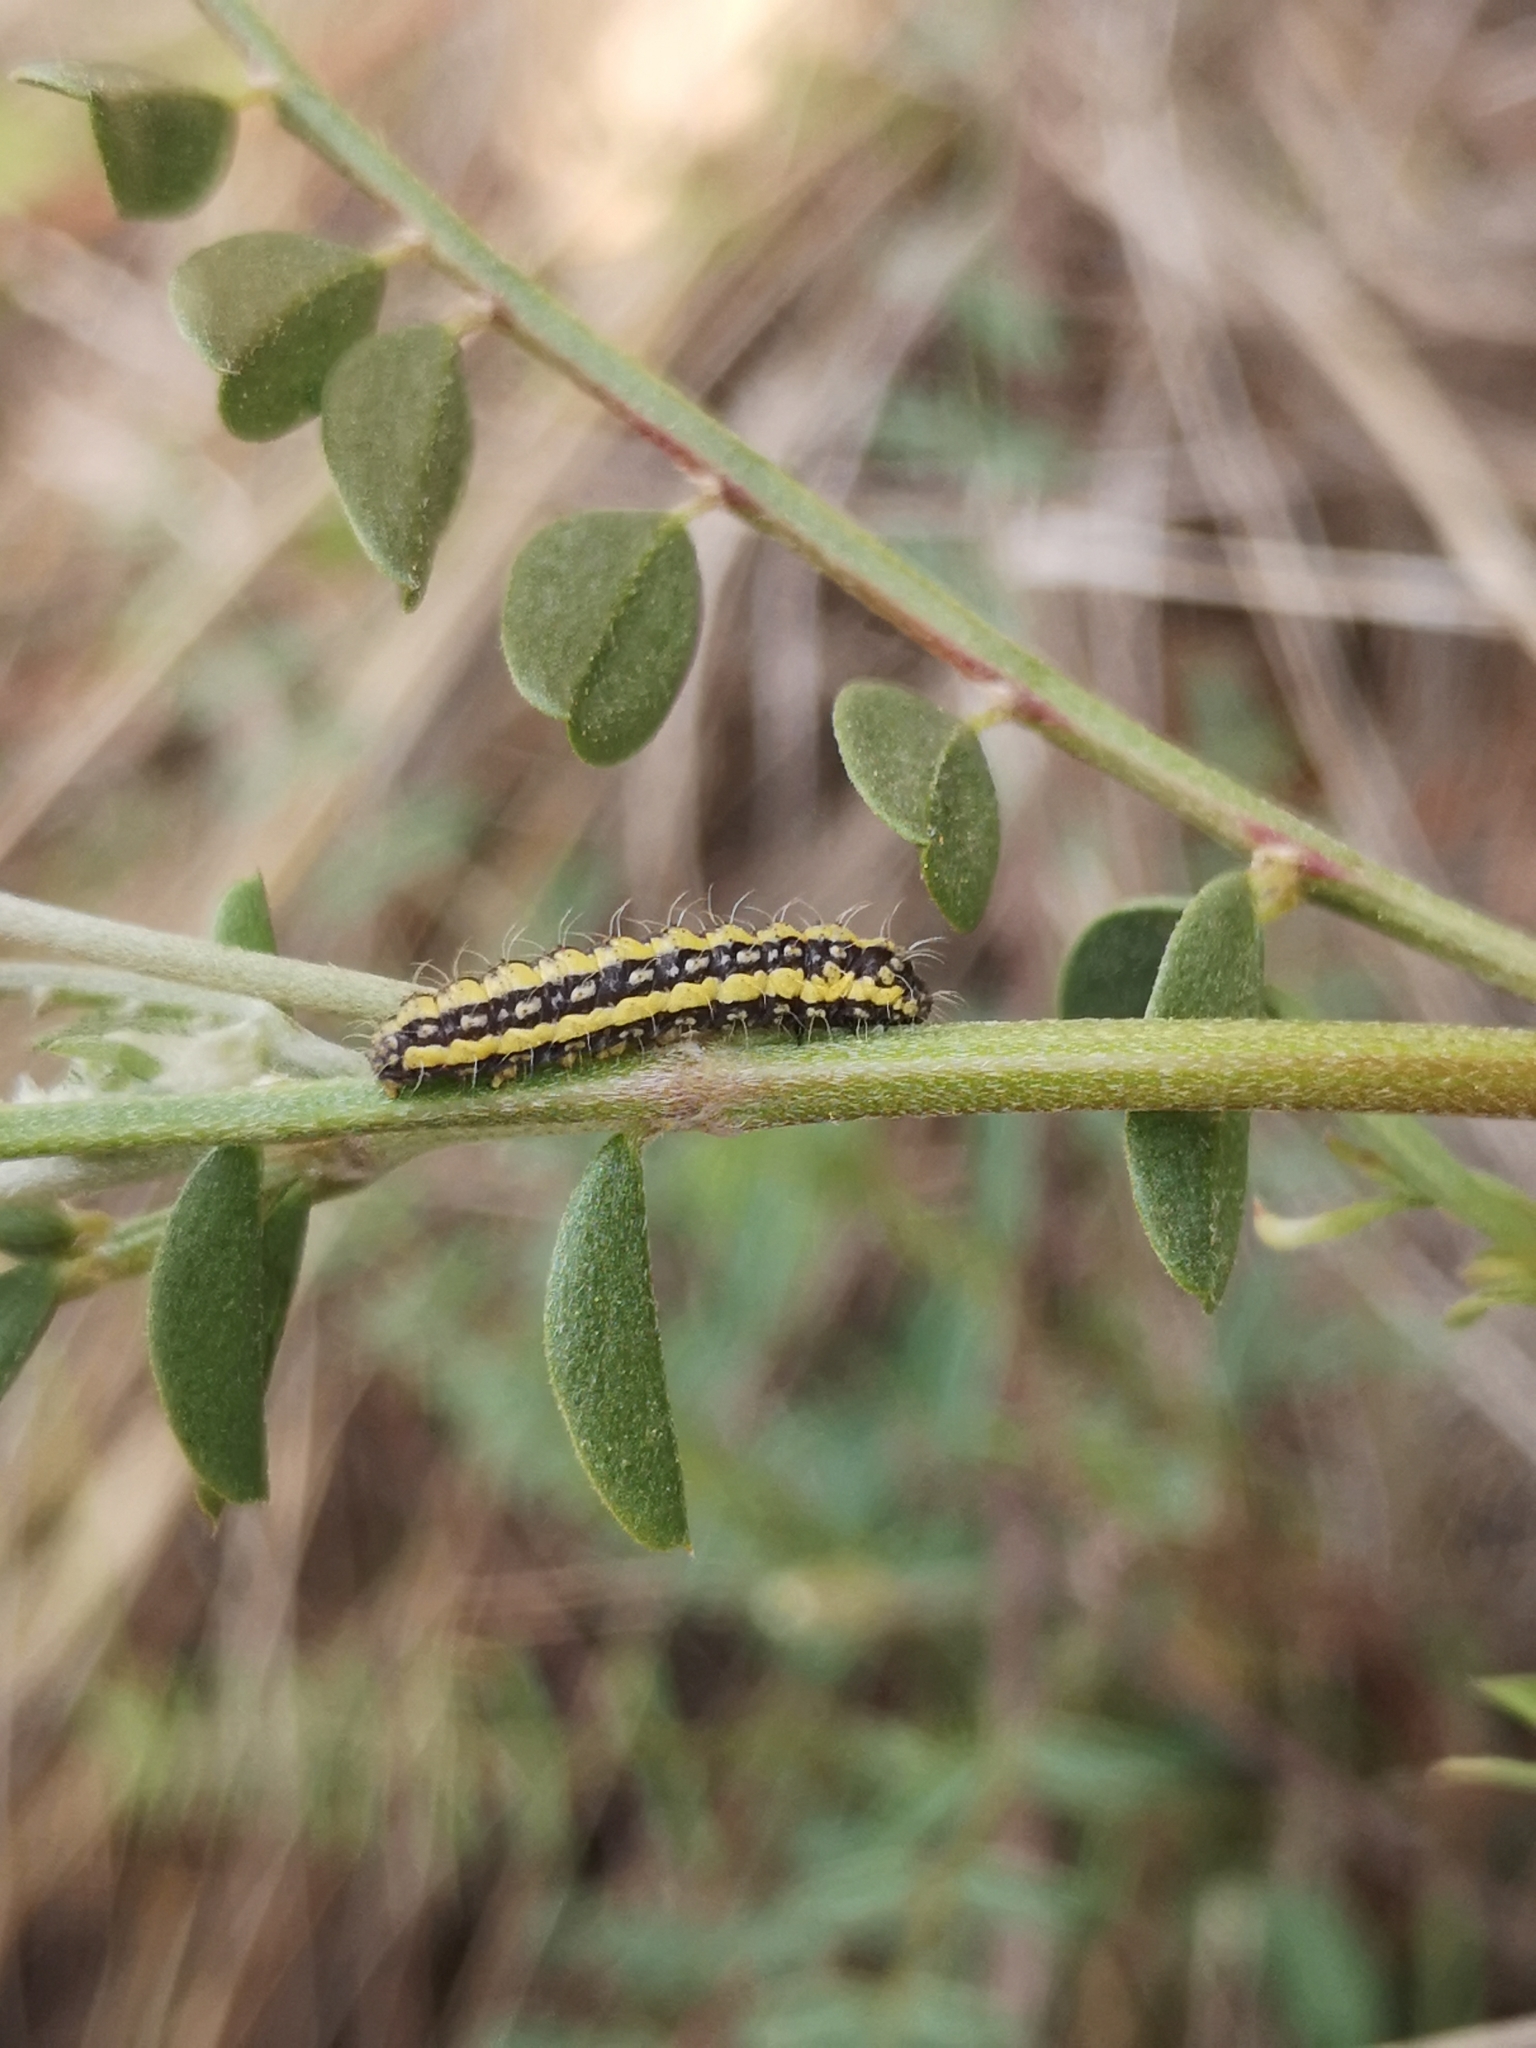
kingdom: Animalia
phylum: Arthropoda
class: Insecta
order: Lepidoptera
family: Heterogynidae
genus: Heterogynis
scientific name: Heterogynis penella
